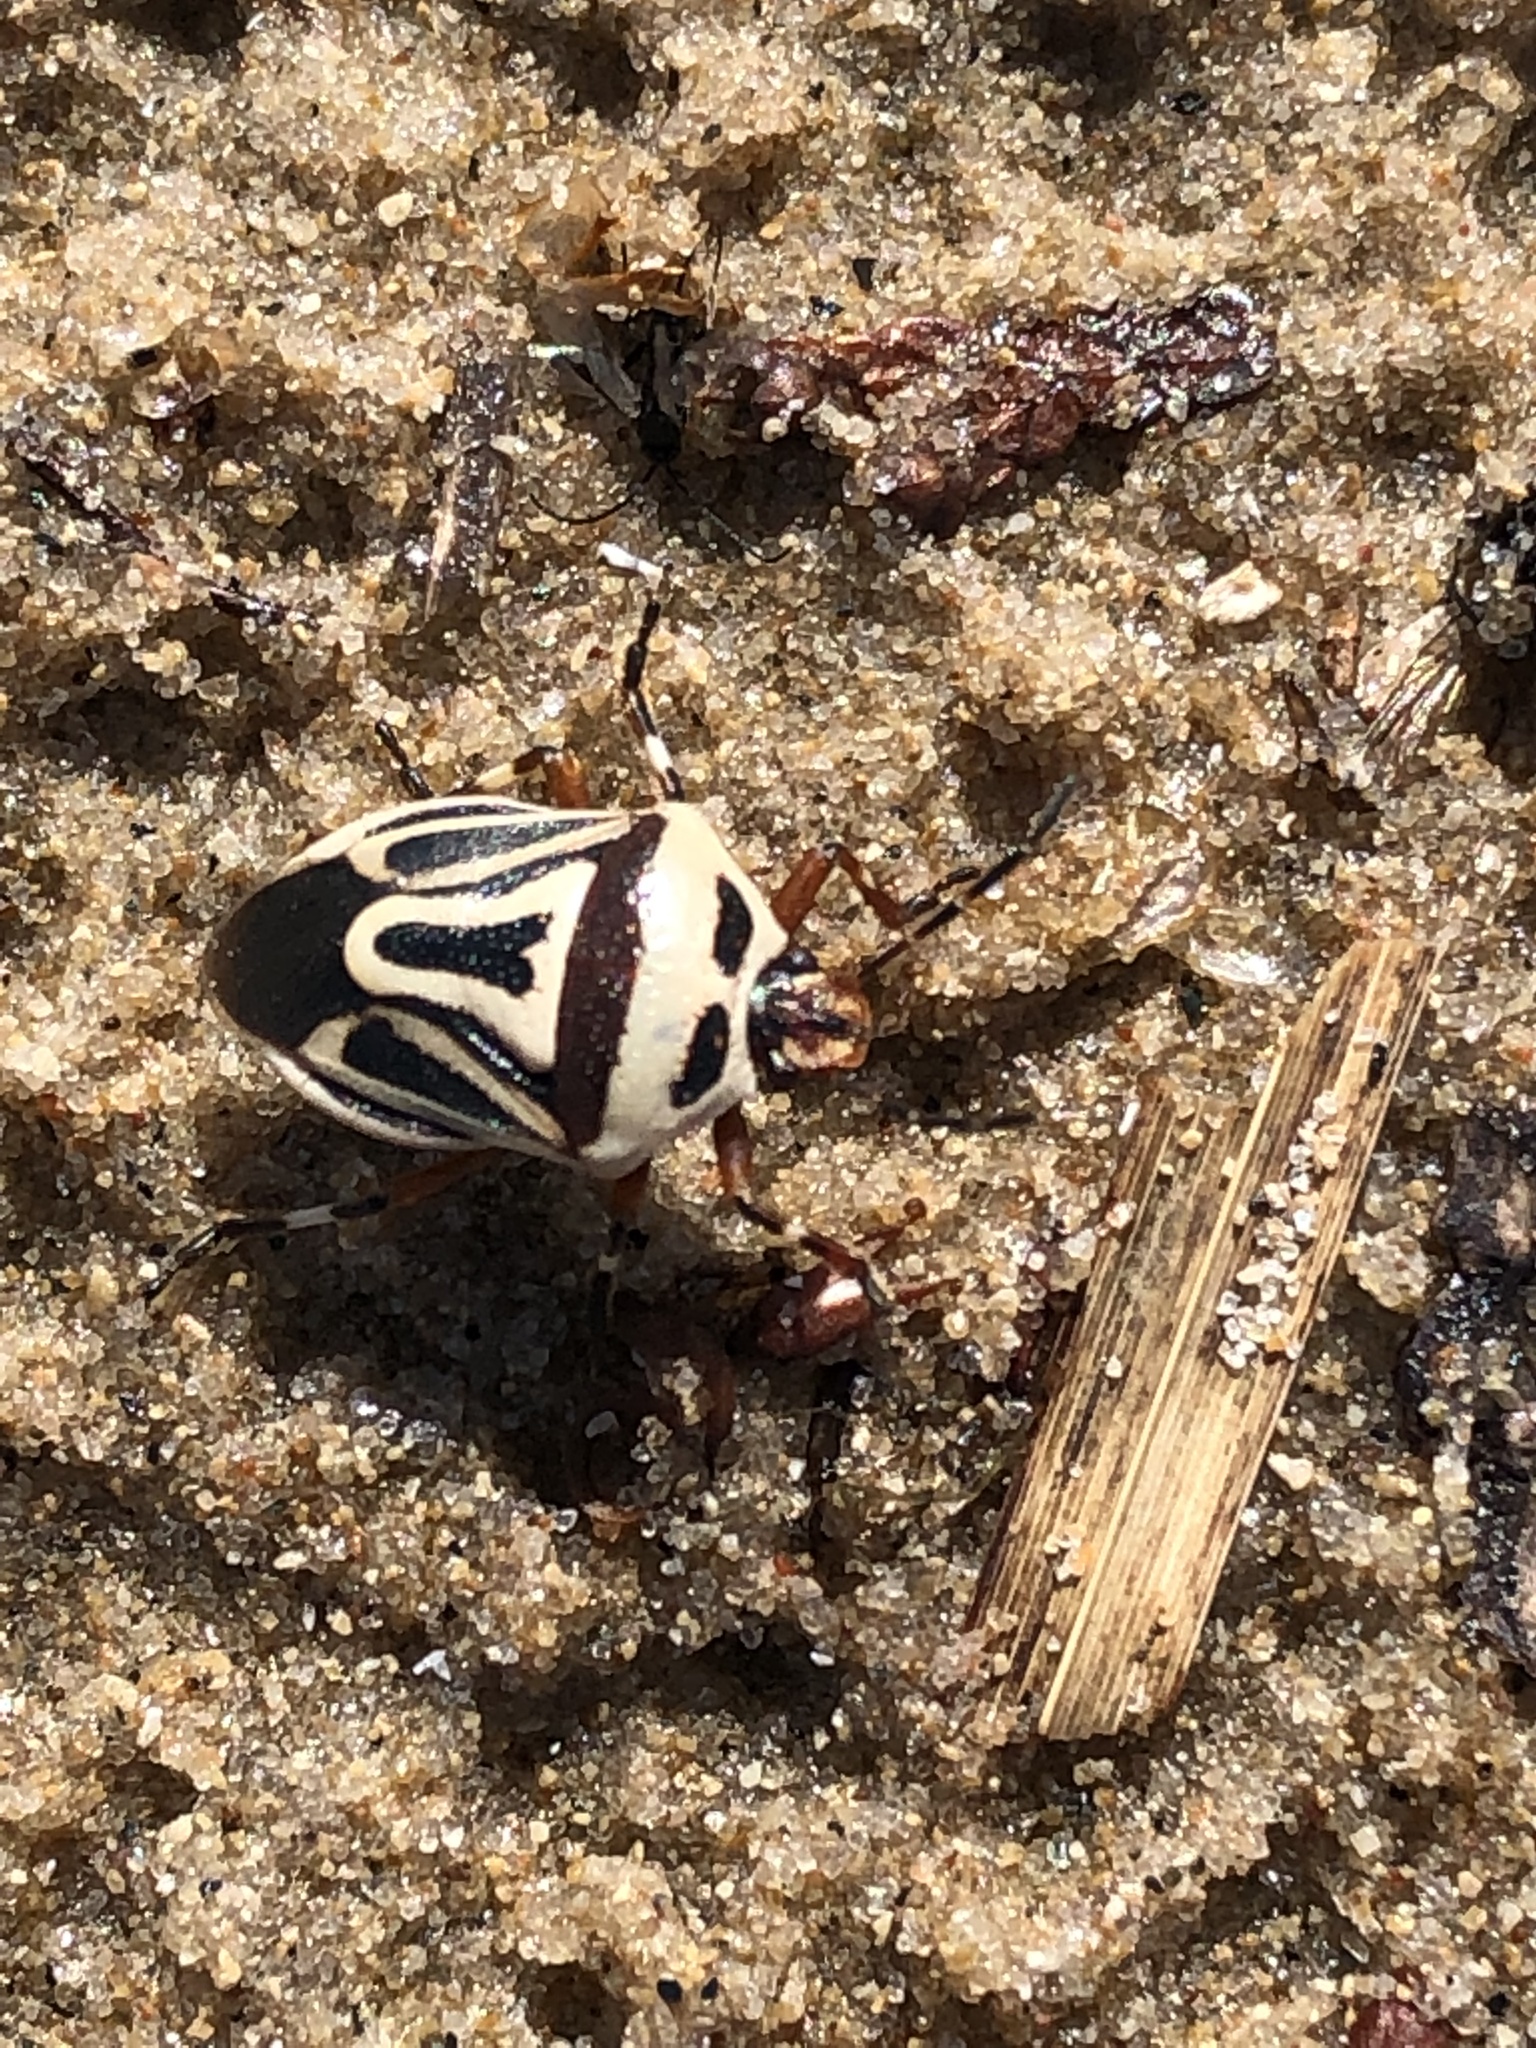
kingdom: Animalia
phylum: Arthropoda
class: Insecta
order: Hemiptera
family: Pentatomidae
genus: Perillus
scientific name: Perillus bioculatus
